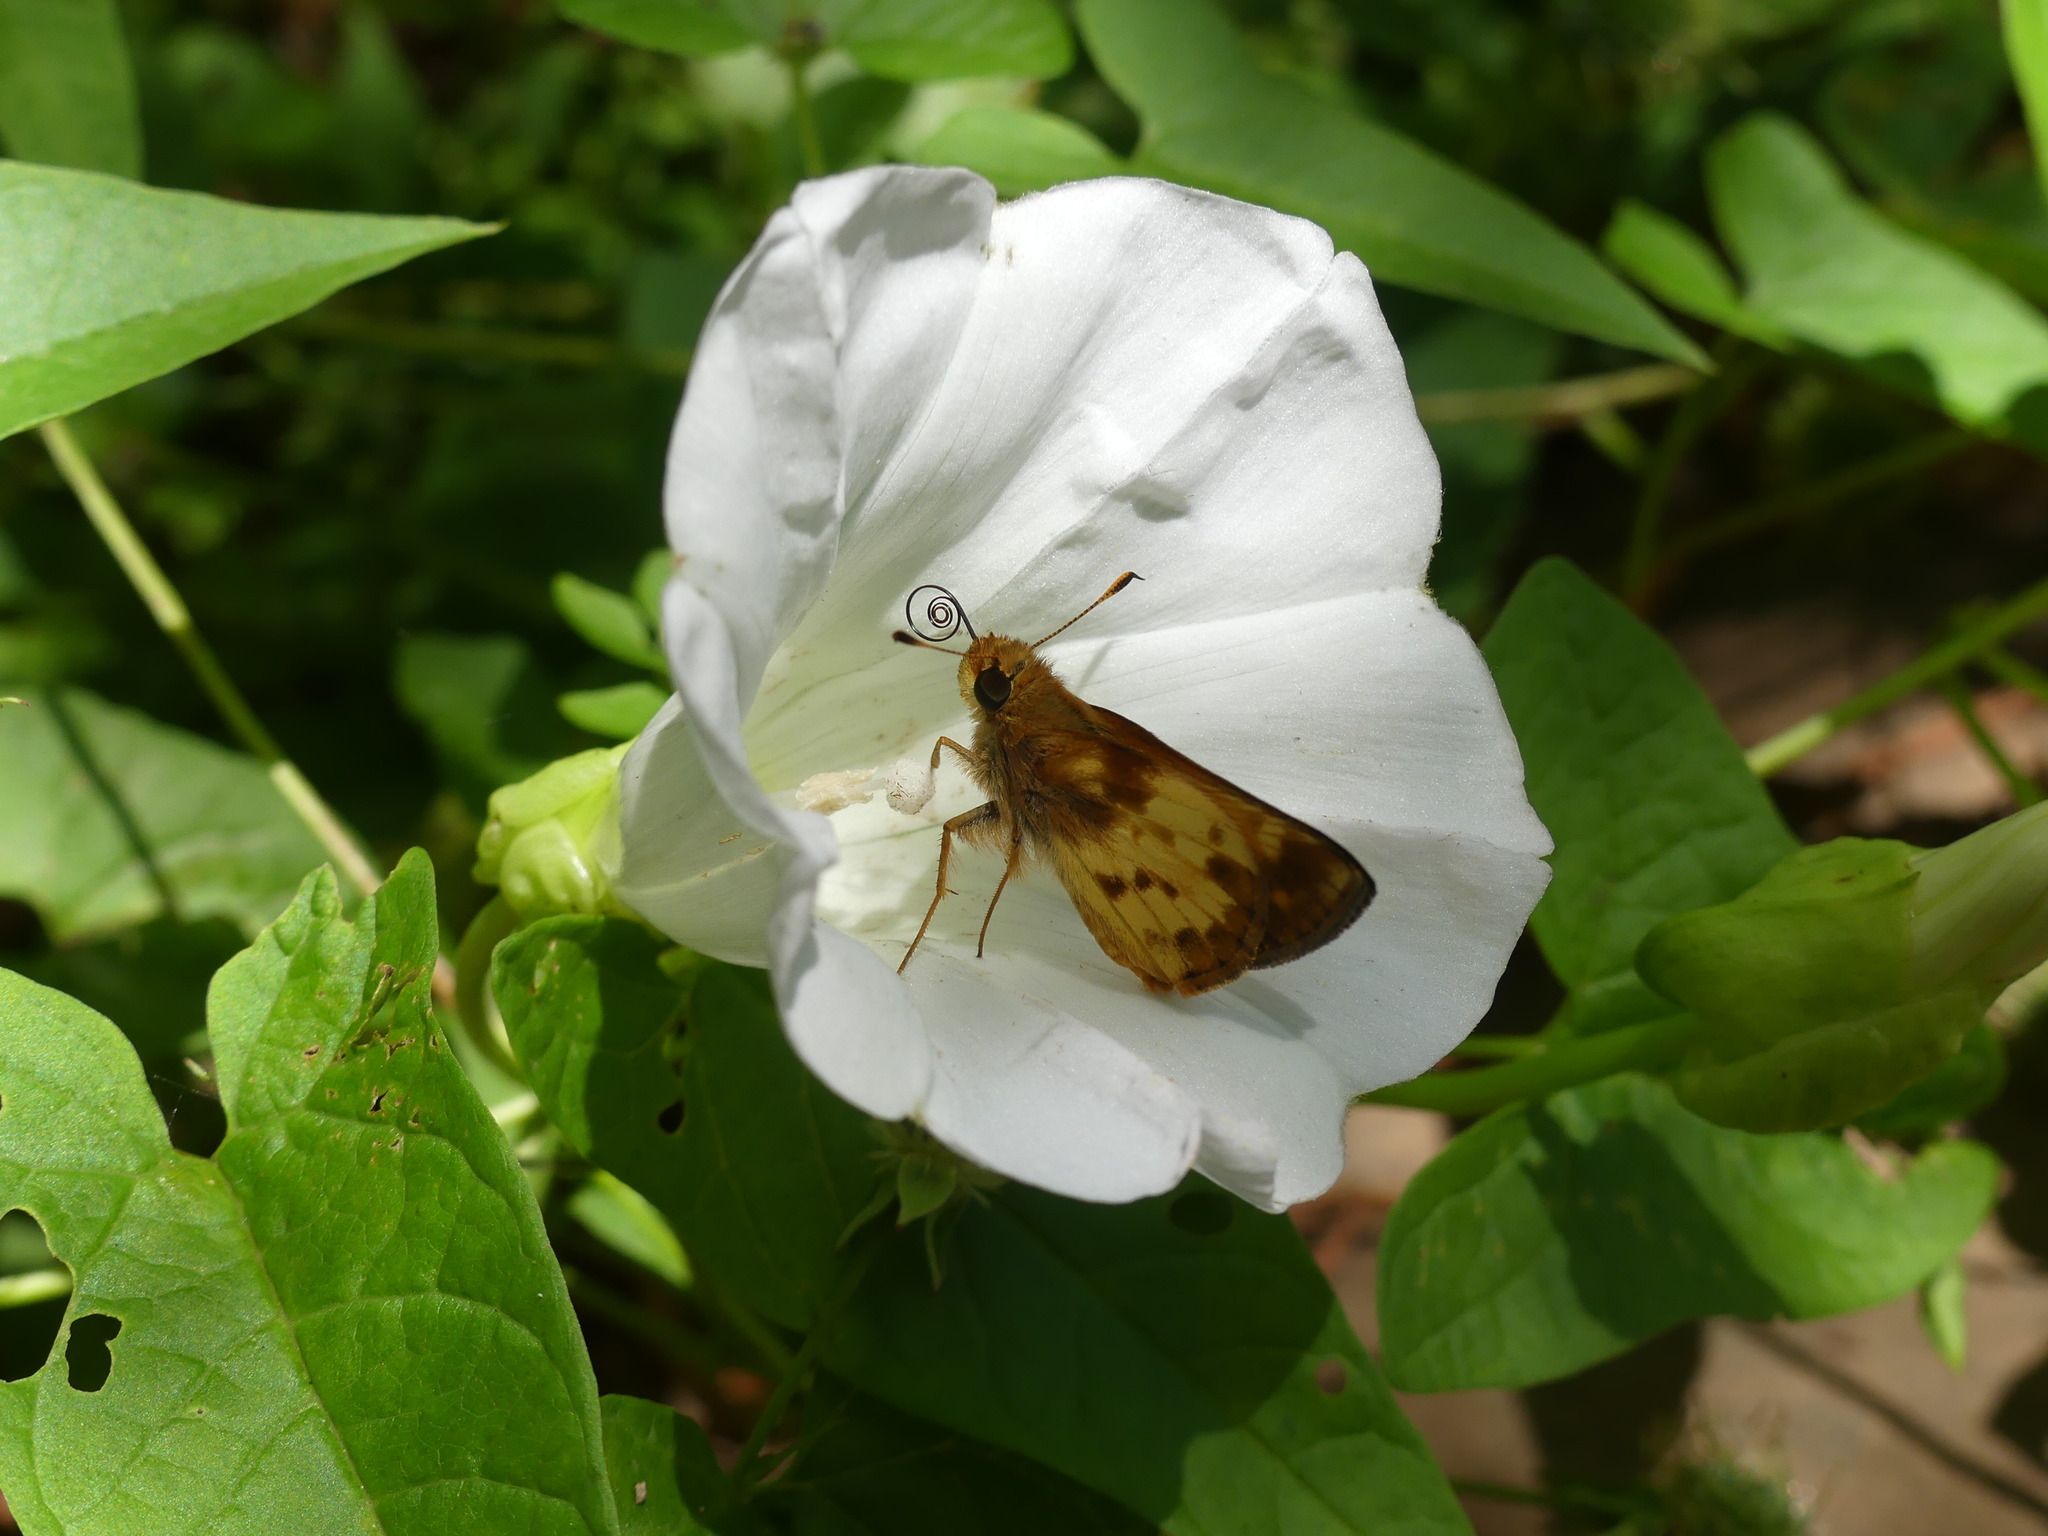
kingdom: Animalia
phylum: Arthropoda
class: Insecta
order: Lepidoptera
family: Hesperiidae
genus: Lon
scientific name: Lon zabulon
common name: Zabulon skipper
